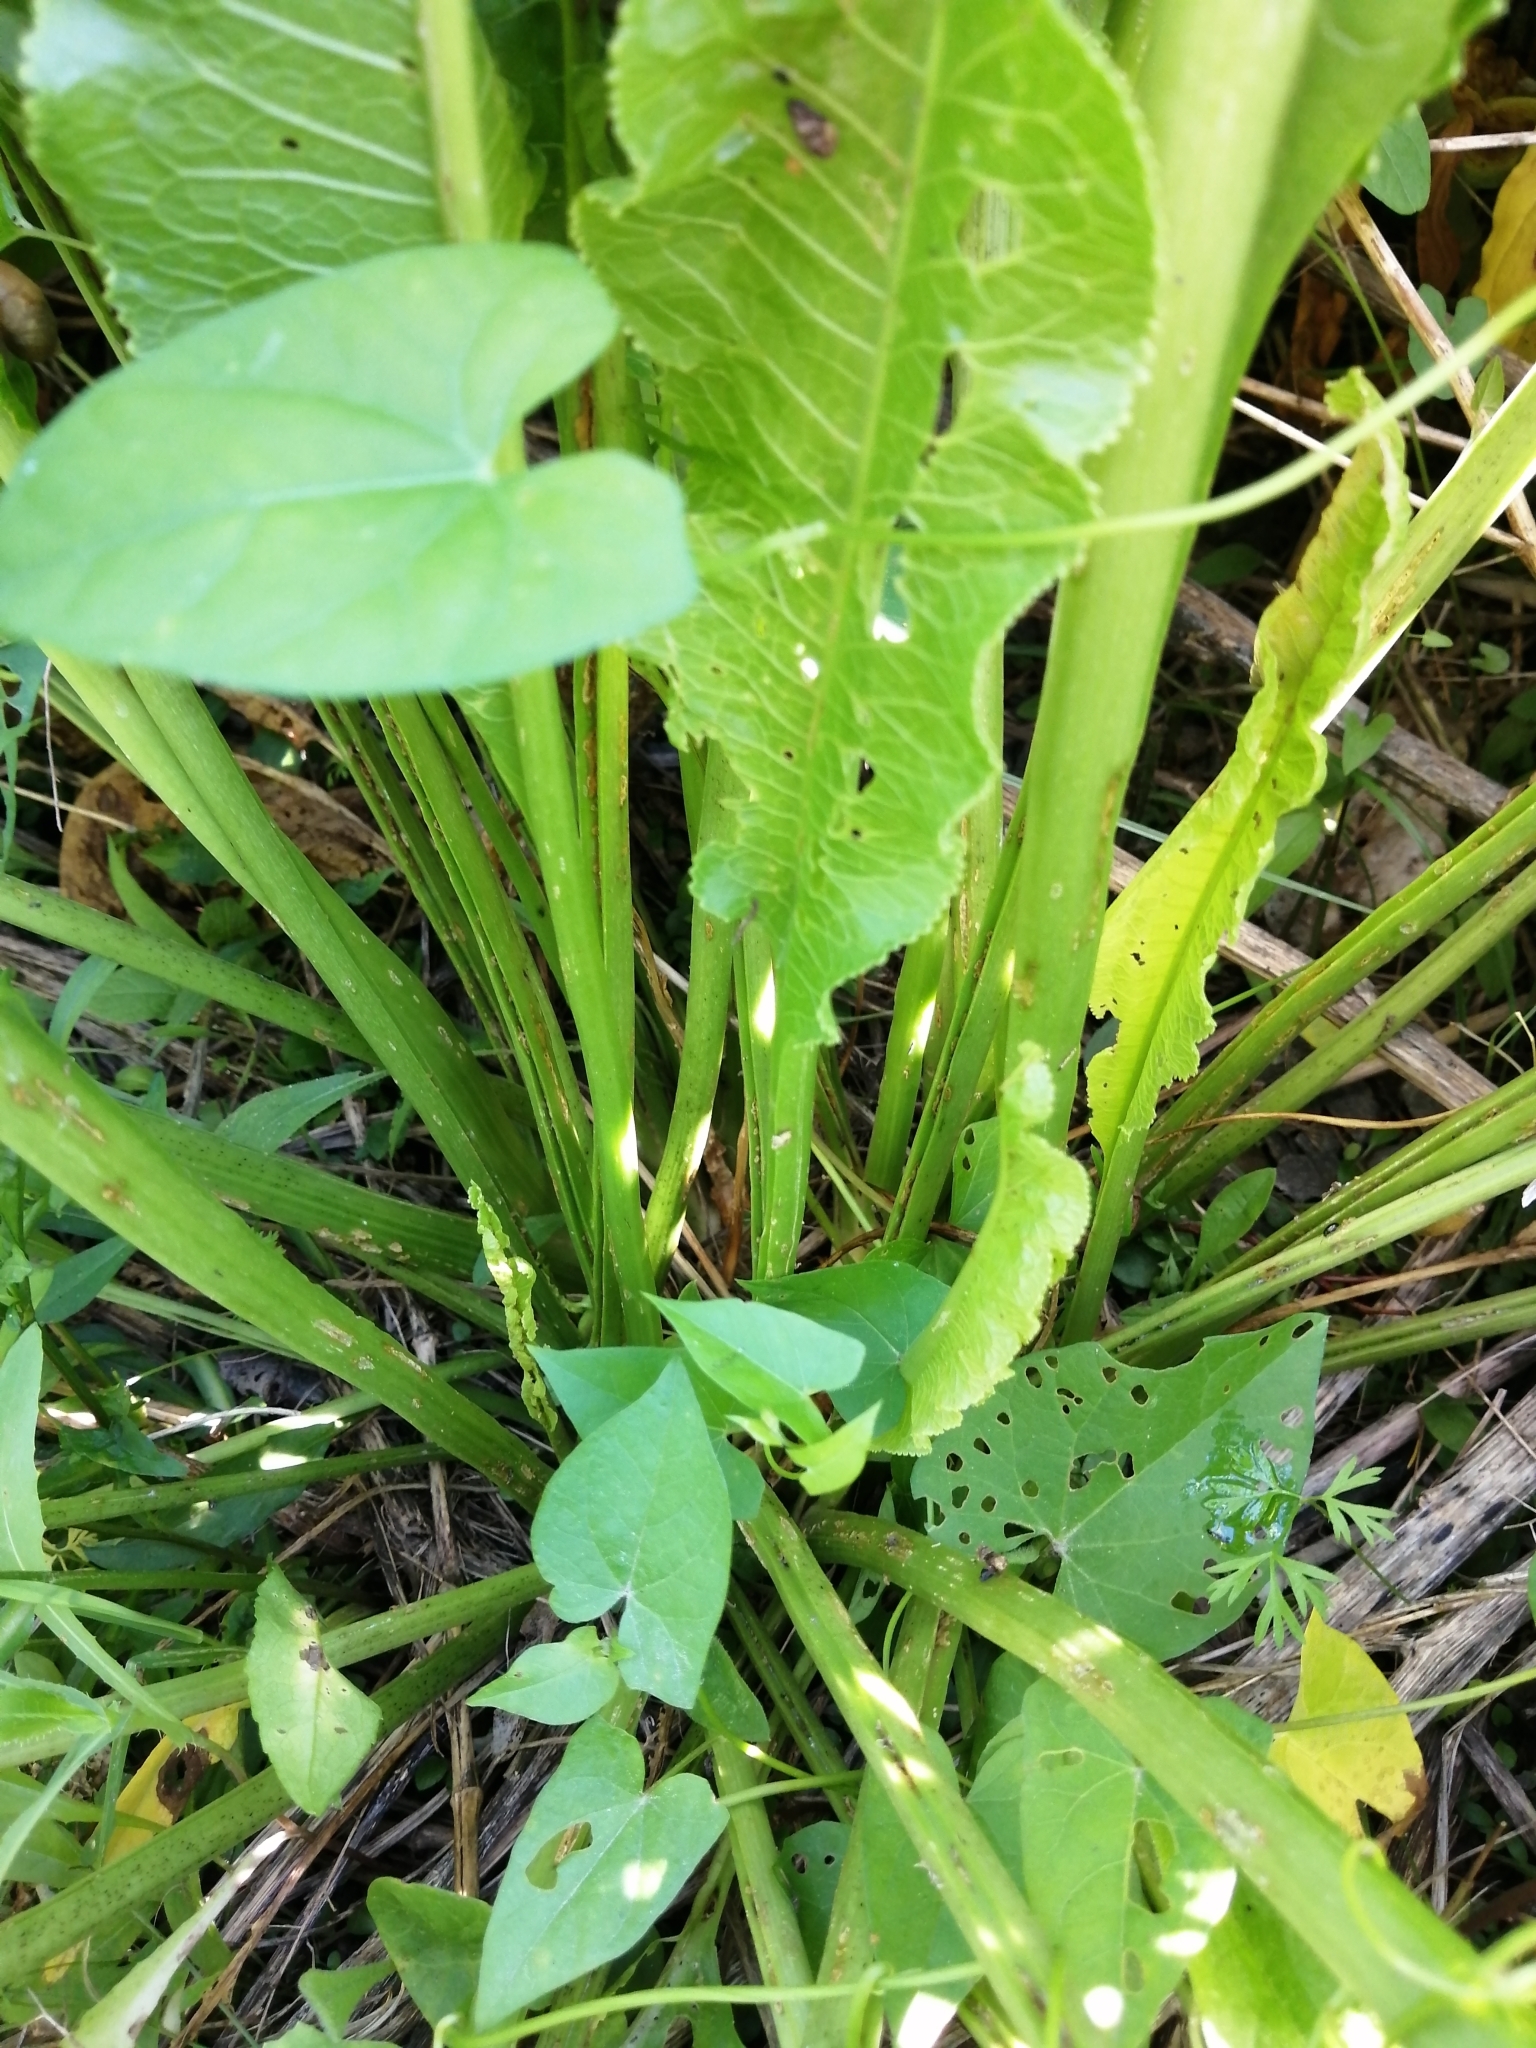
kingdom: Plantae
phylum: Tracheophyta
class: Magnoliopsida
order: Brassicales
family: Brassicaceae
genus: Armoracia
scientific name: Armoracia rusticana
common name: Horseradish
